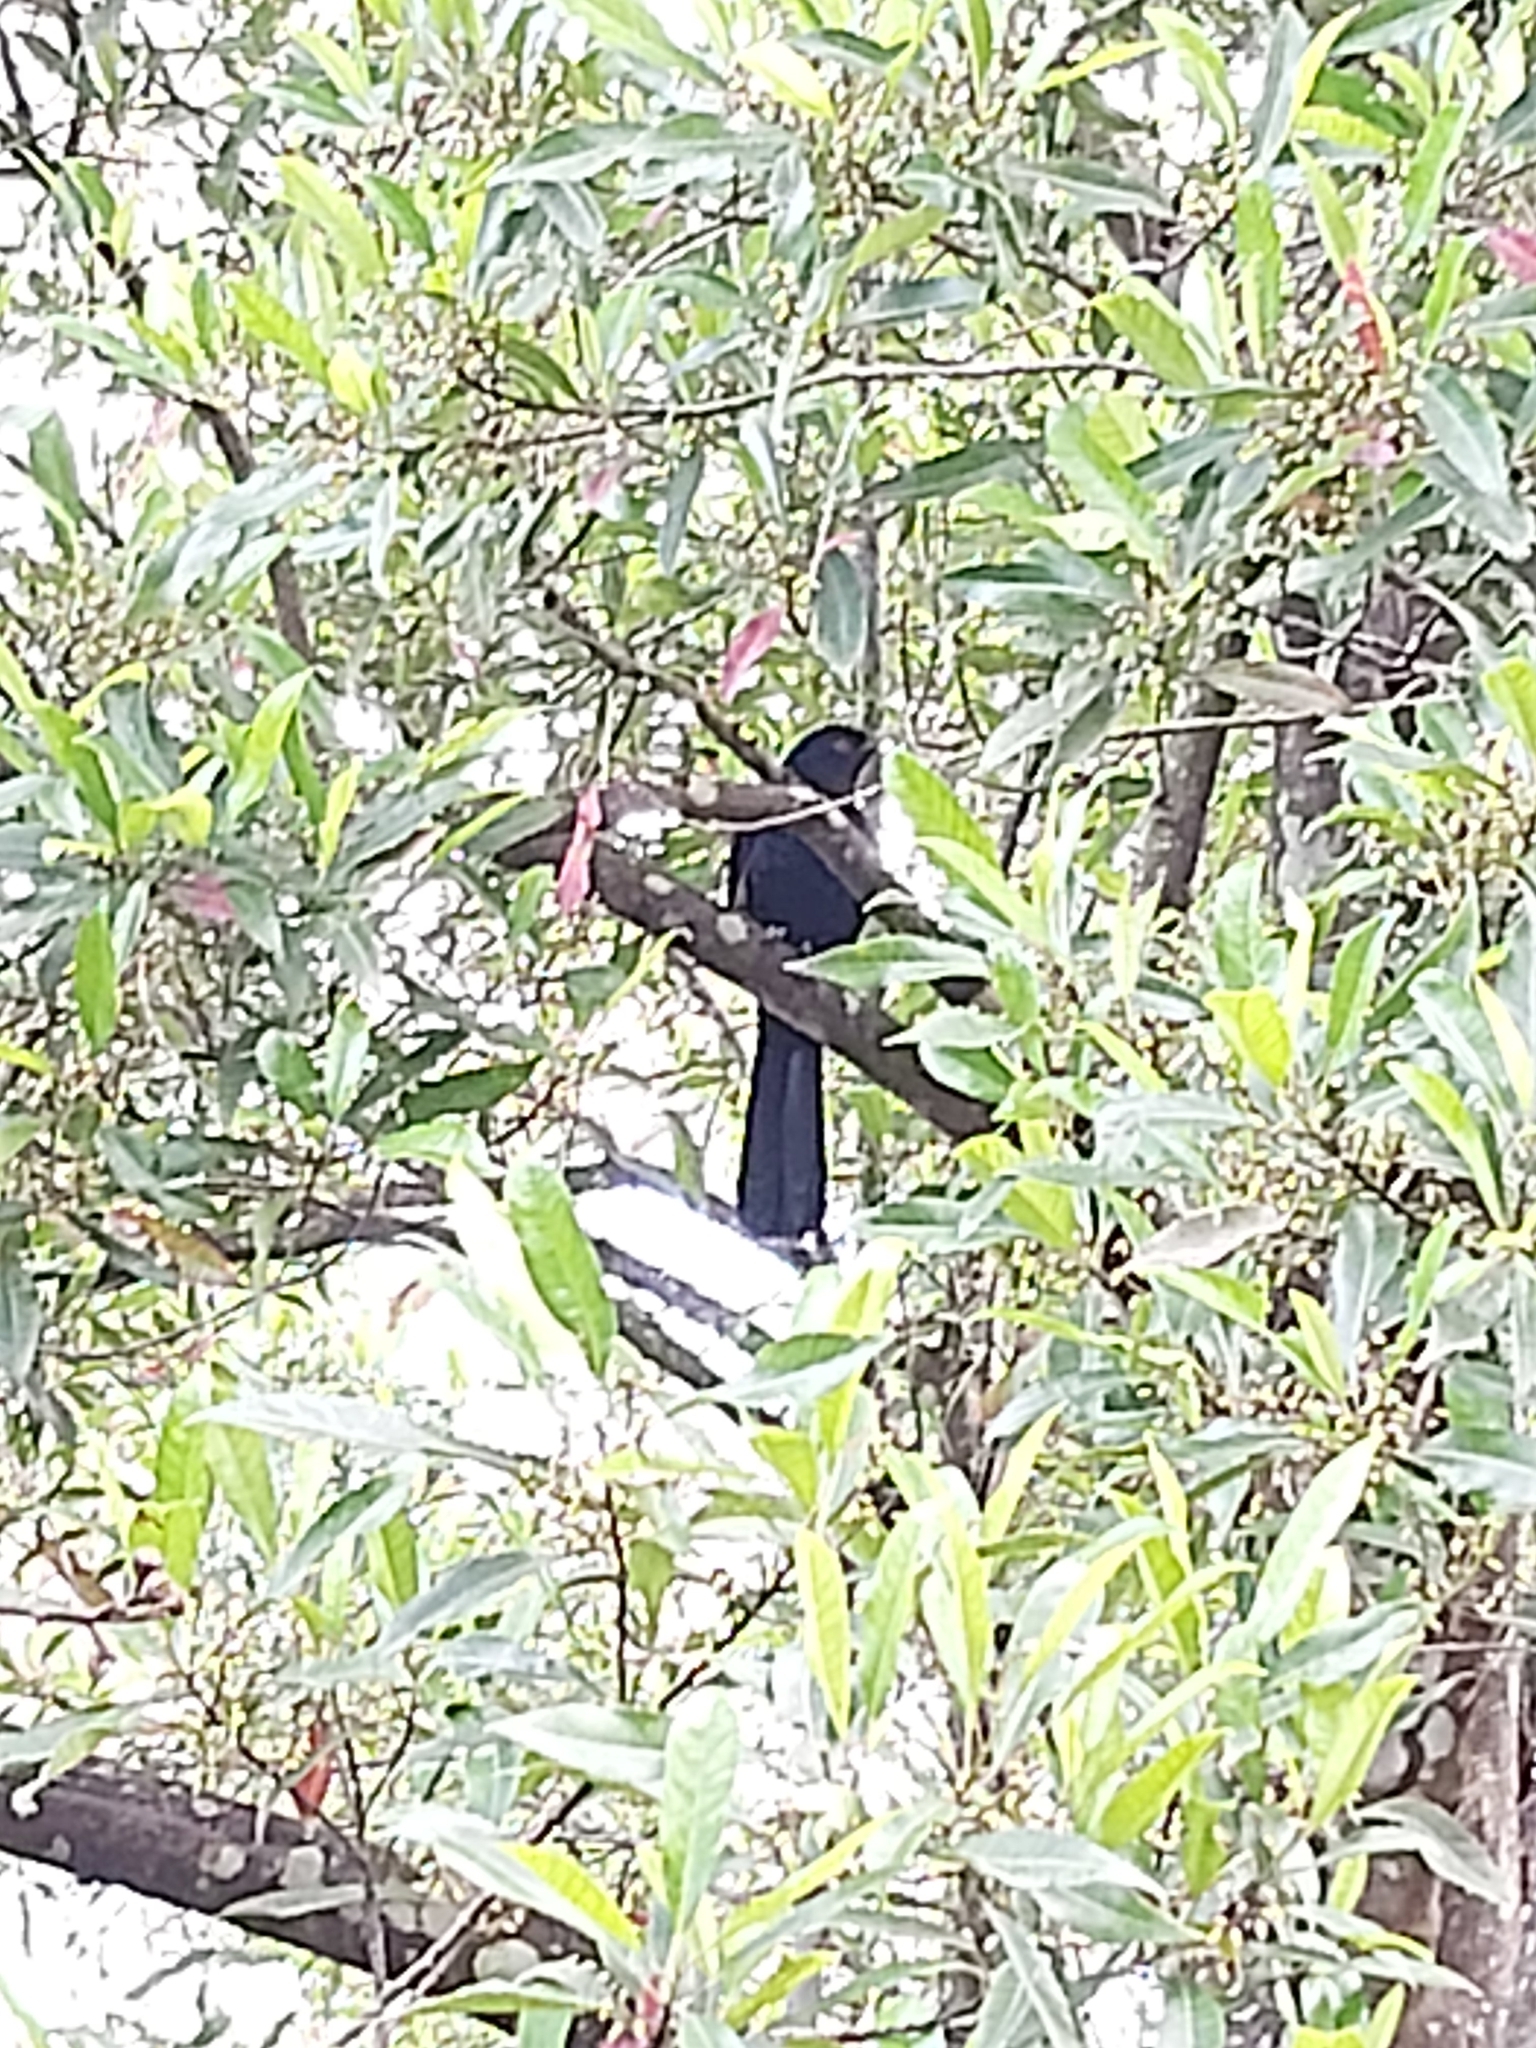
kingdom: Animalia
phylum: Chordata
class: Aves
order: Cuculiformes
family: Cuculidae
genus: Eudynamys
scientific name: Eudynamys orientalis
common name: Pacific koel
